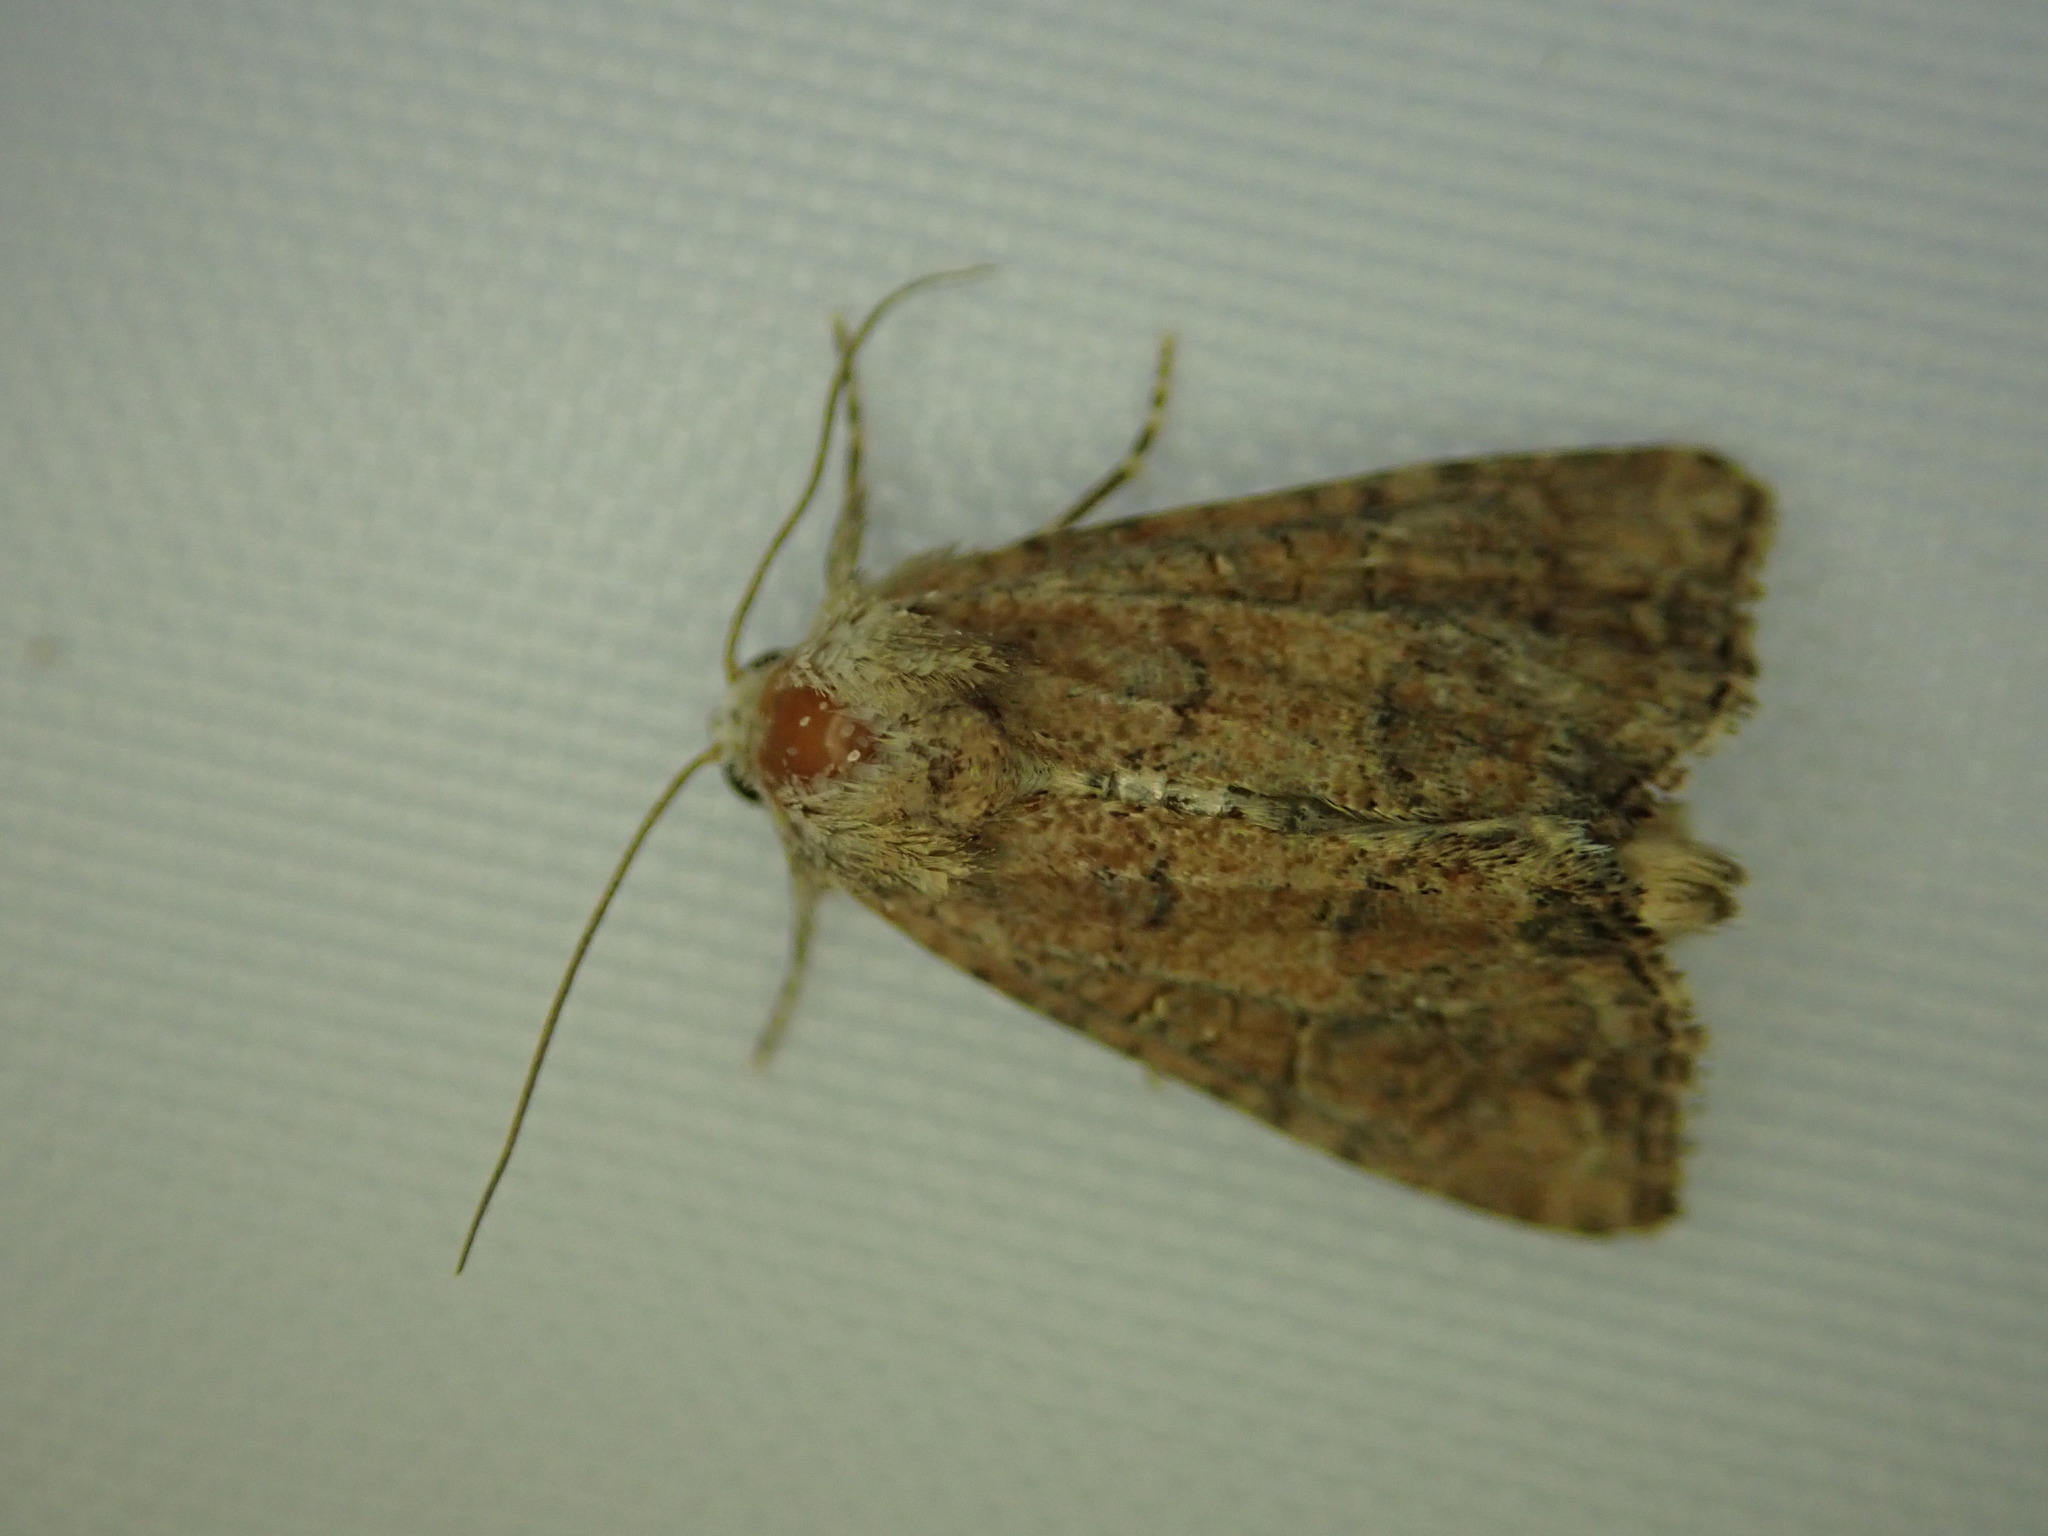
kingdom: Animalia
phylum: Arthropoda
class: Insecta
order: Lepidoptera
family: Noctuidae
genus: Mesoligia
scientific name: Mesoligia furuncula
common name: Cloaked minor
